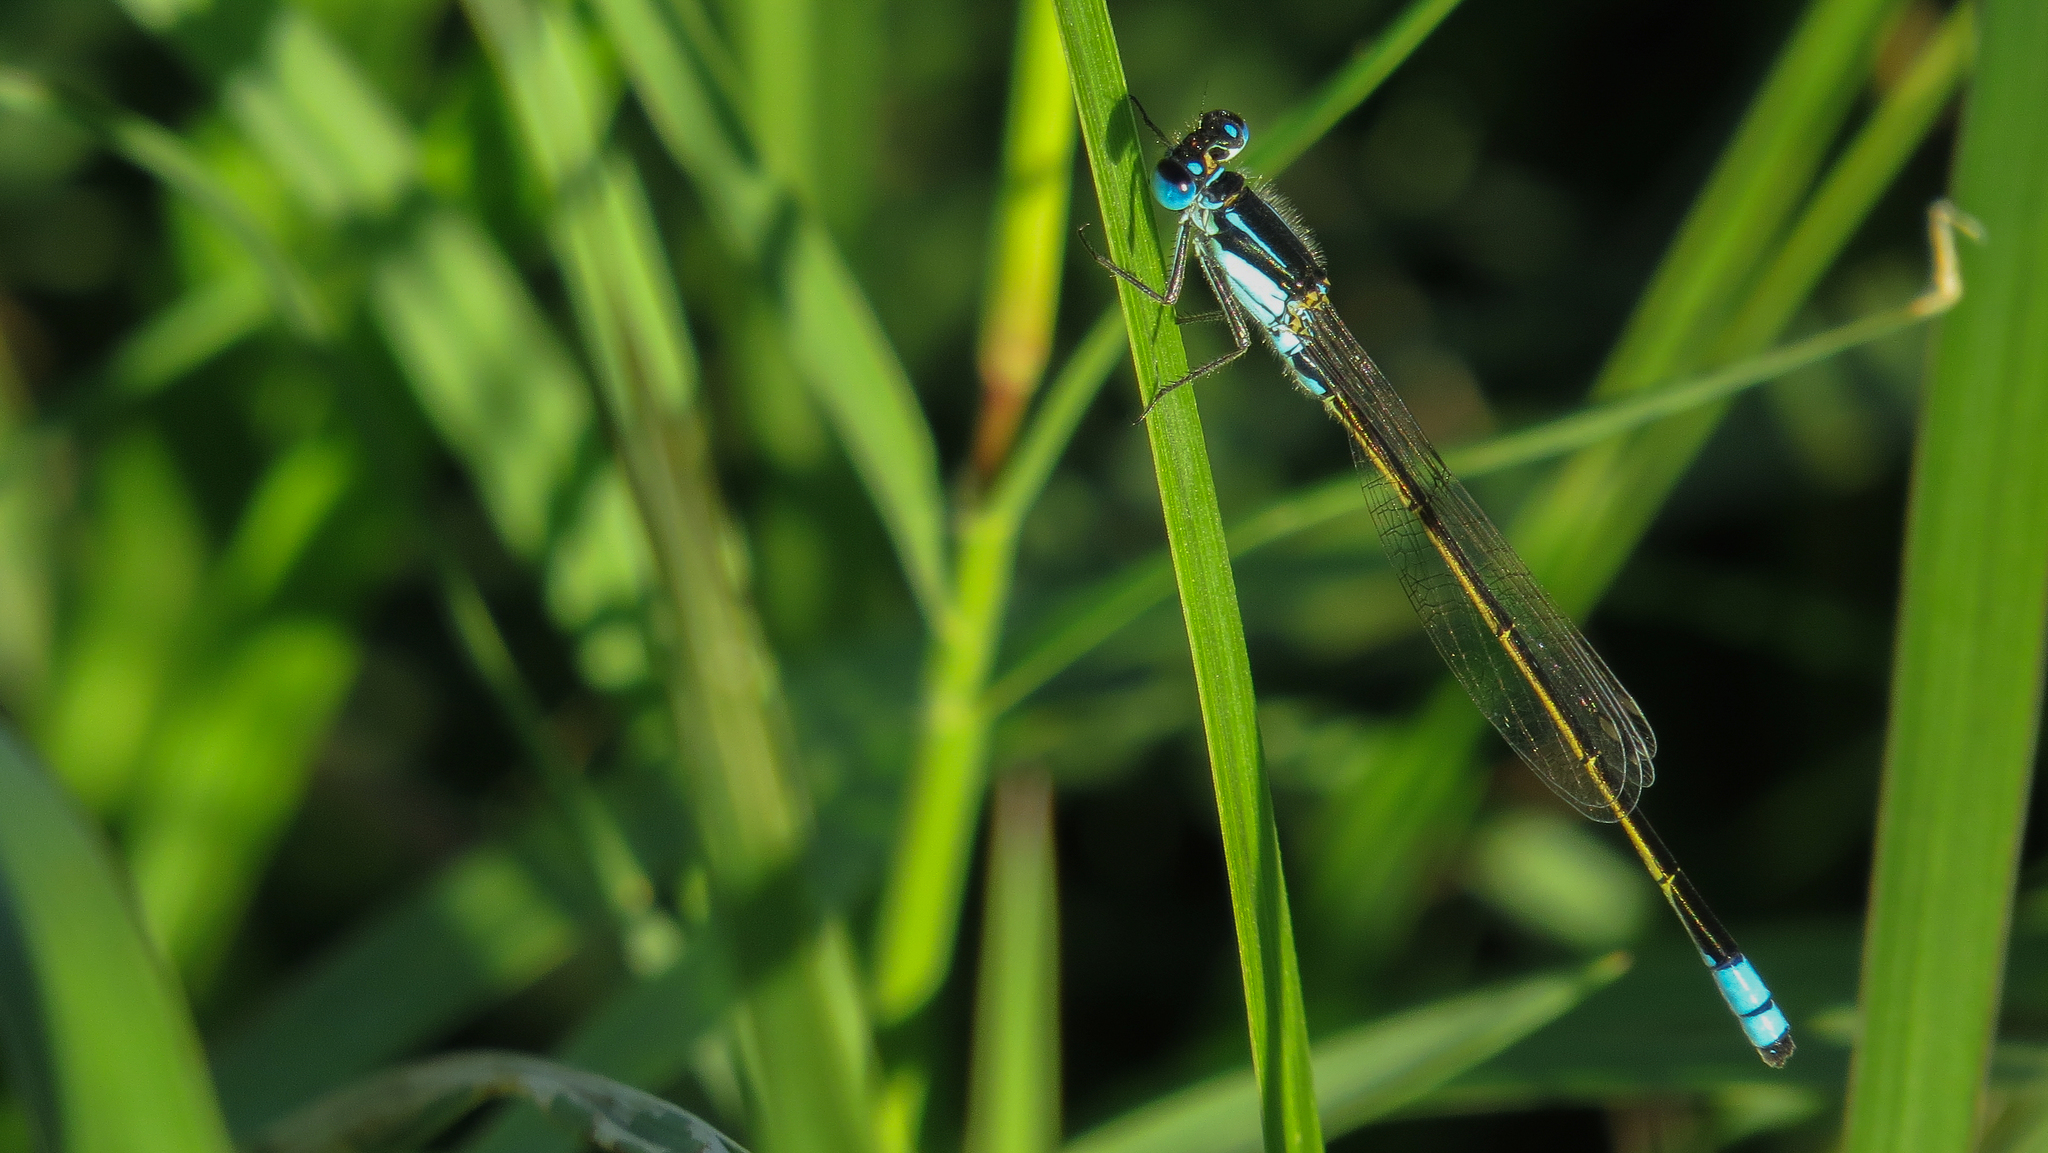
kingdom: Animalia
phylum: Arthropoda
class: Insecta
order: Odonata
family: Coenagrionidae
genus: Ischnura
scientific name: Ischnura heterosticta
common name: Common bluetail
